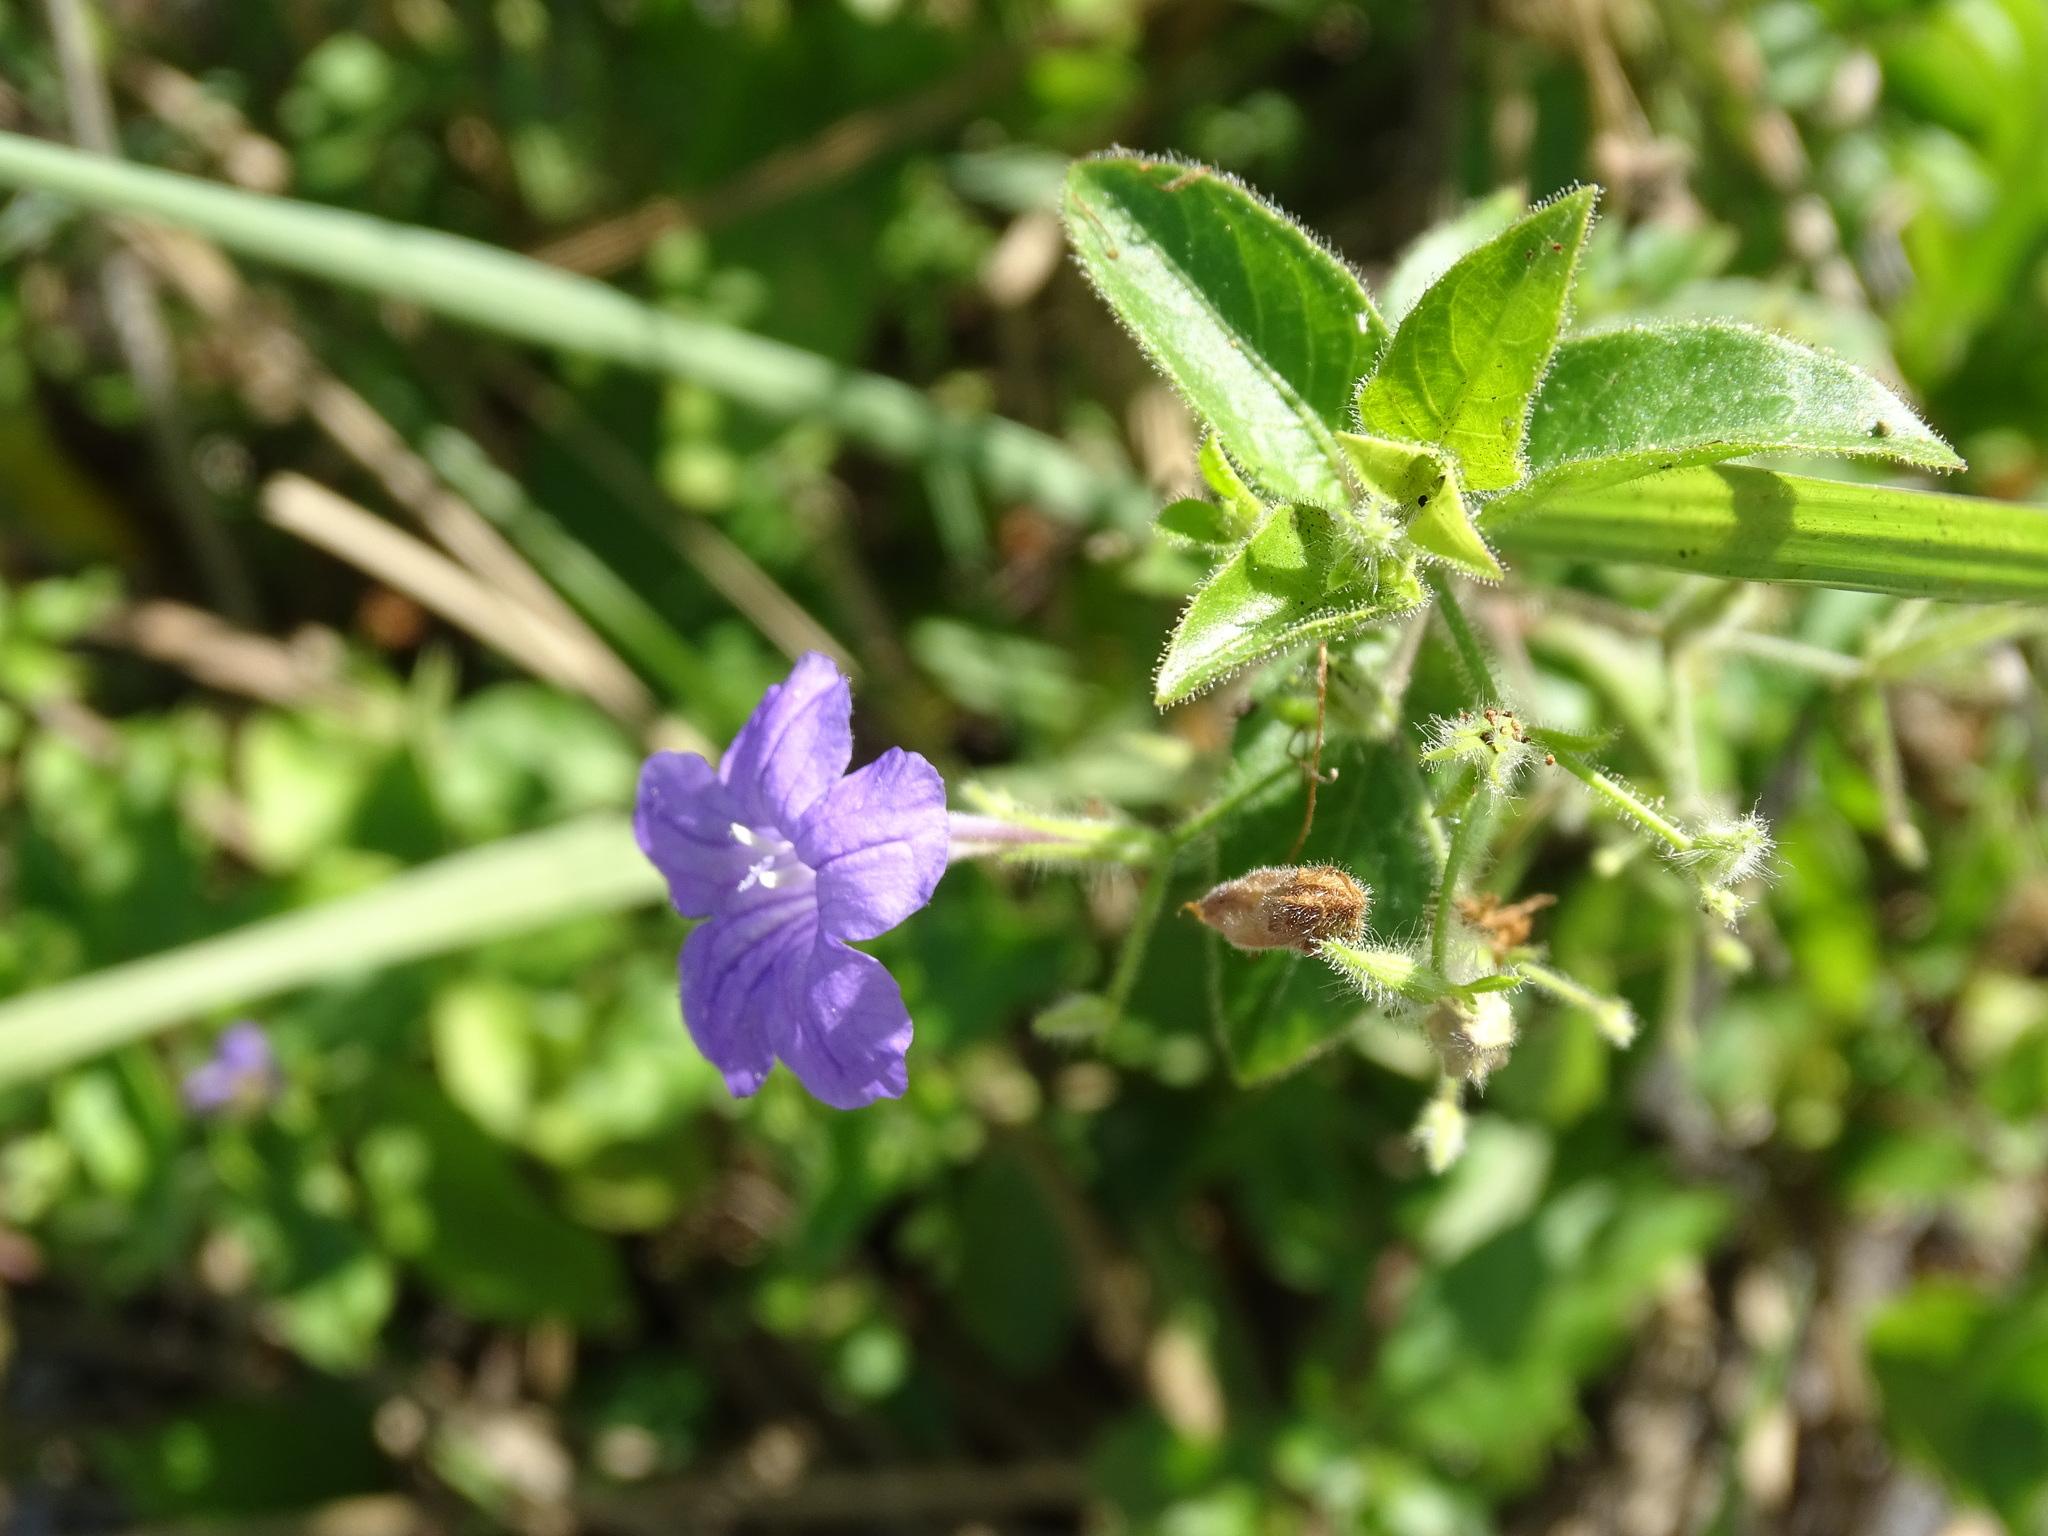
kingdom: Plantae
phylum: Tracheophyta
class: Magnoliopsida
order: Lamiales
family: Acanthaceae
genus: Ruellia
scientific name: Ruellia paniculata
